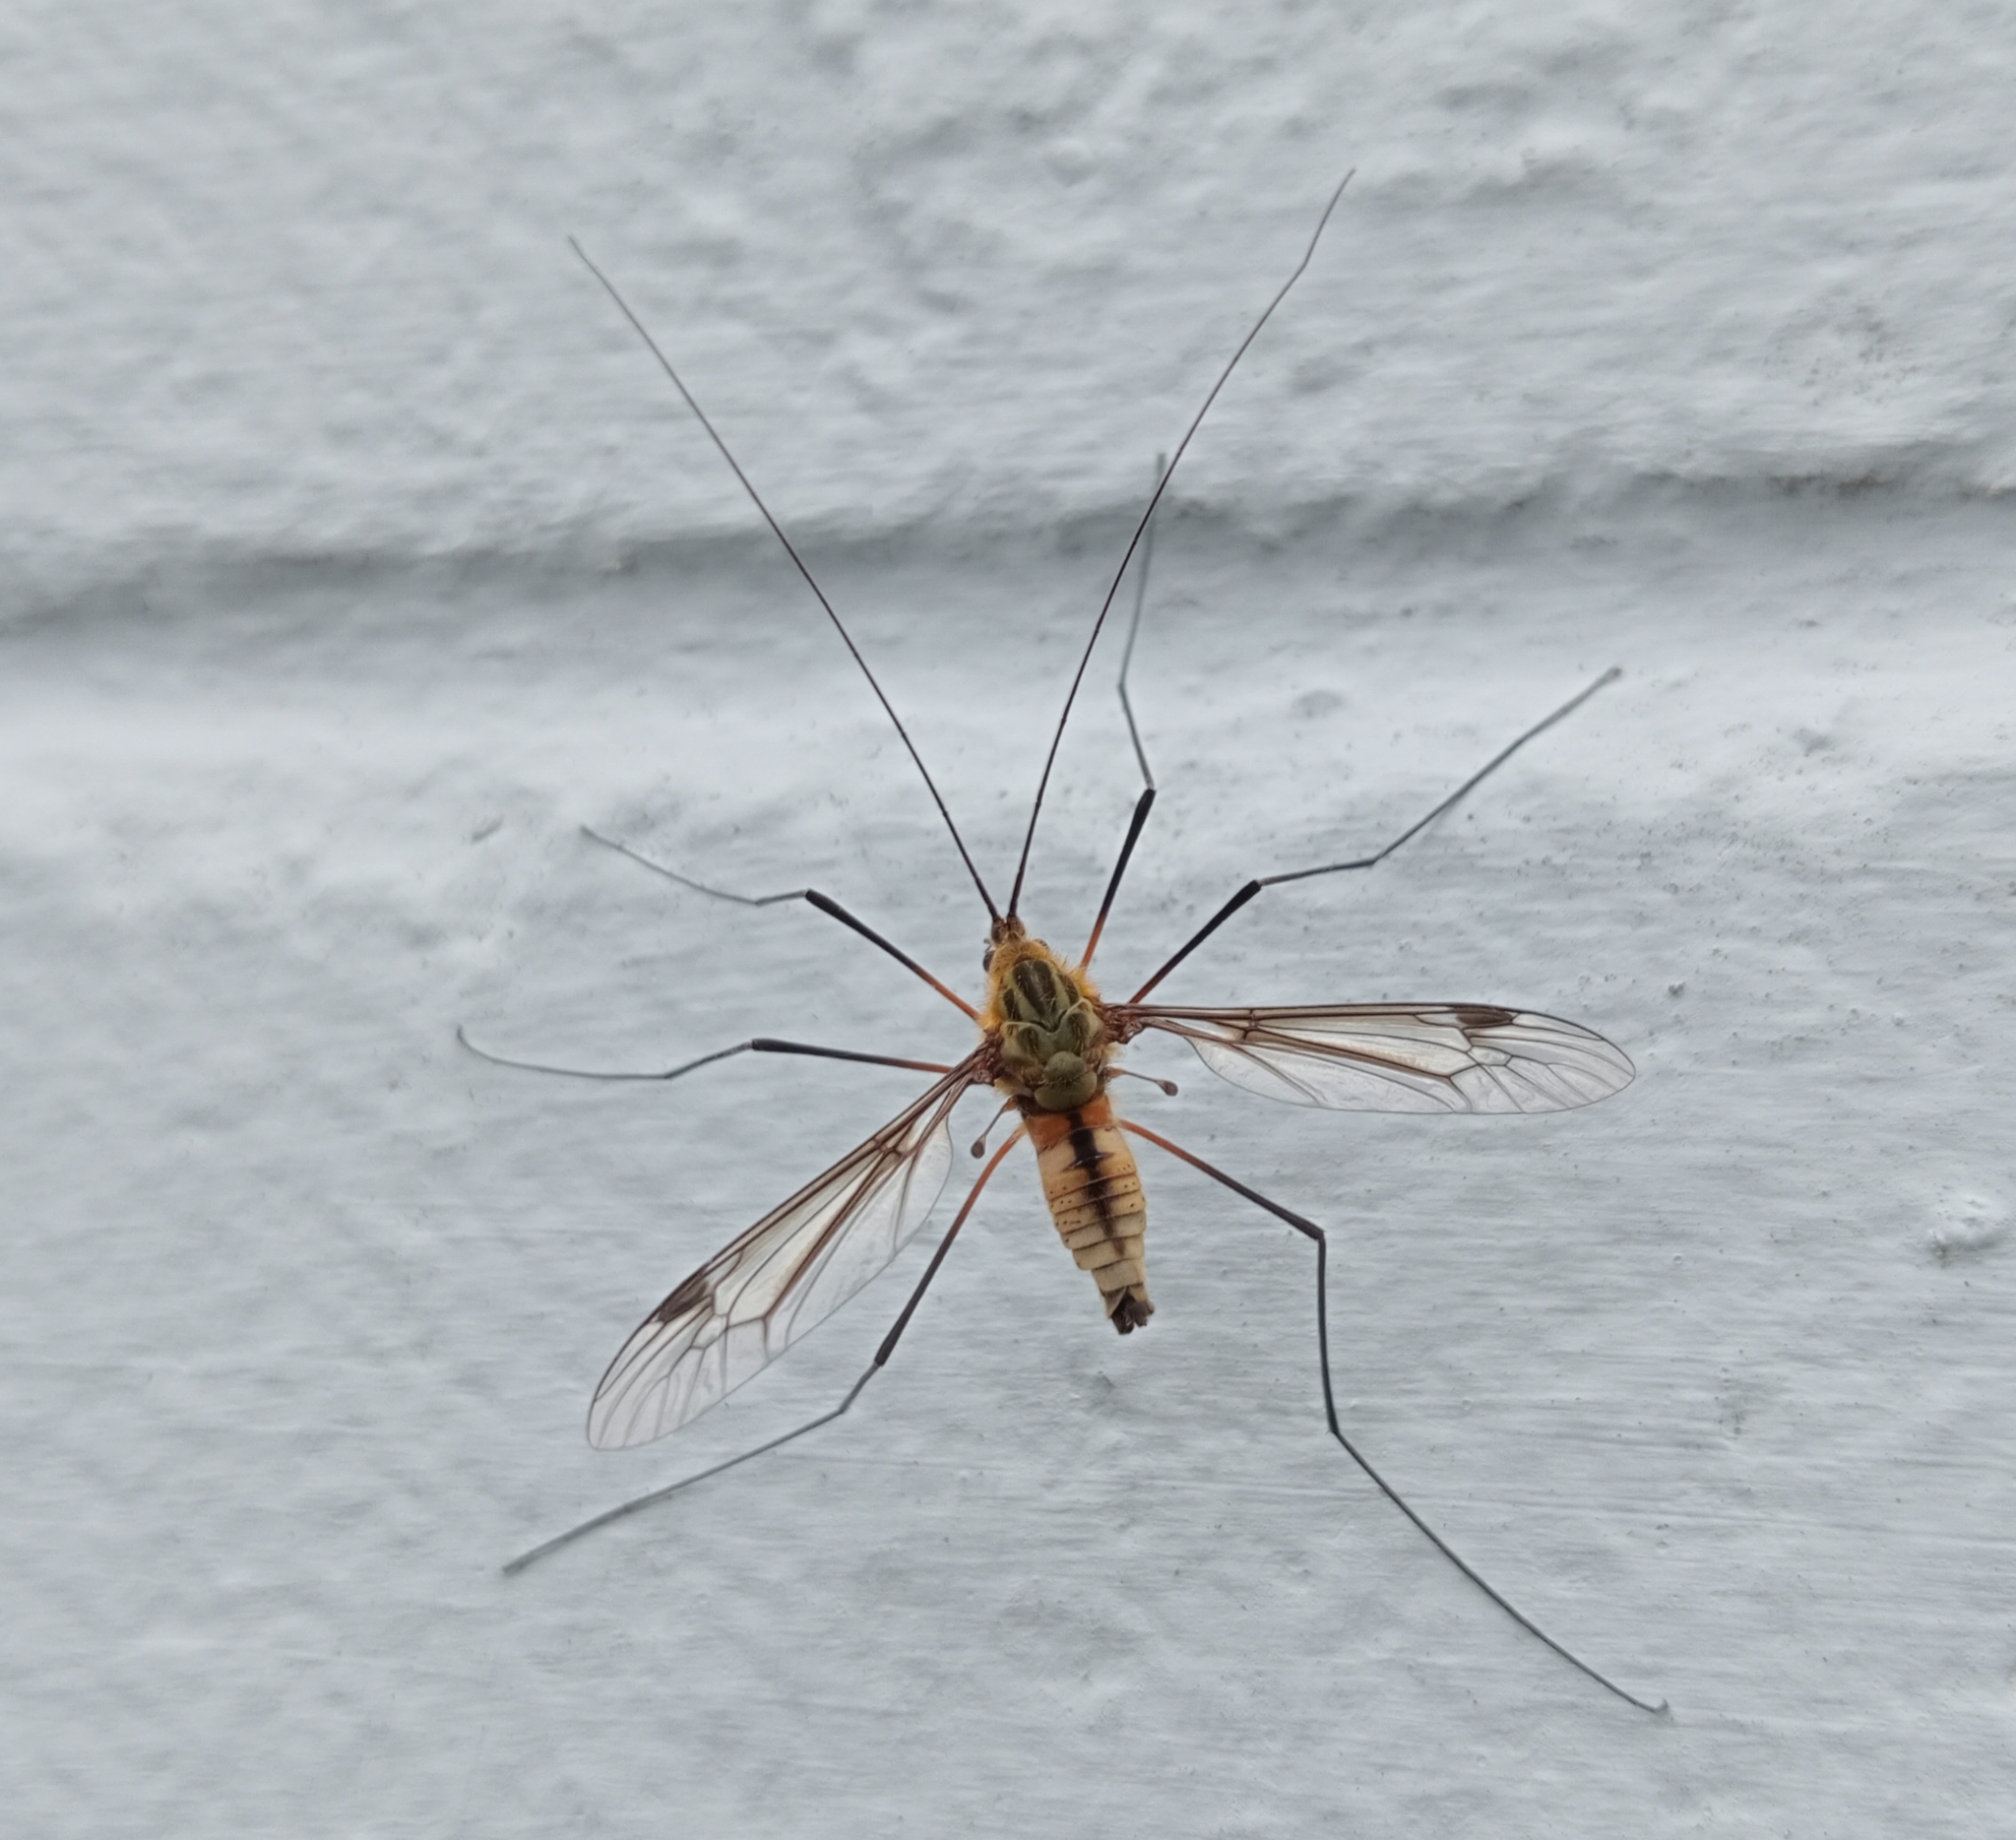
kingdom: Animalia
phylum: Arthropoda
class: Insecta
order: Diptera
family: Tipulidae
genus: Leptotarsus
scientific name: Leptotarsus vulpinus
